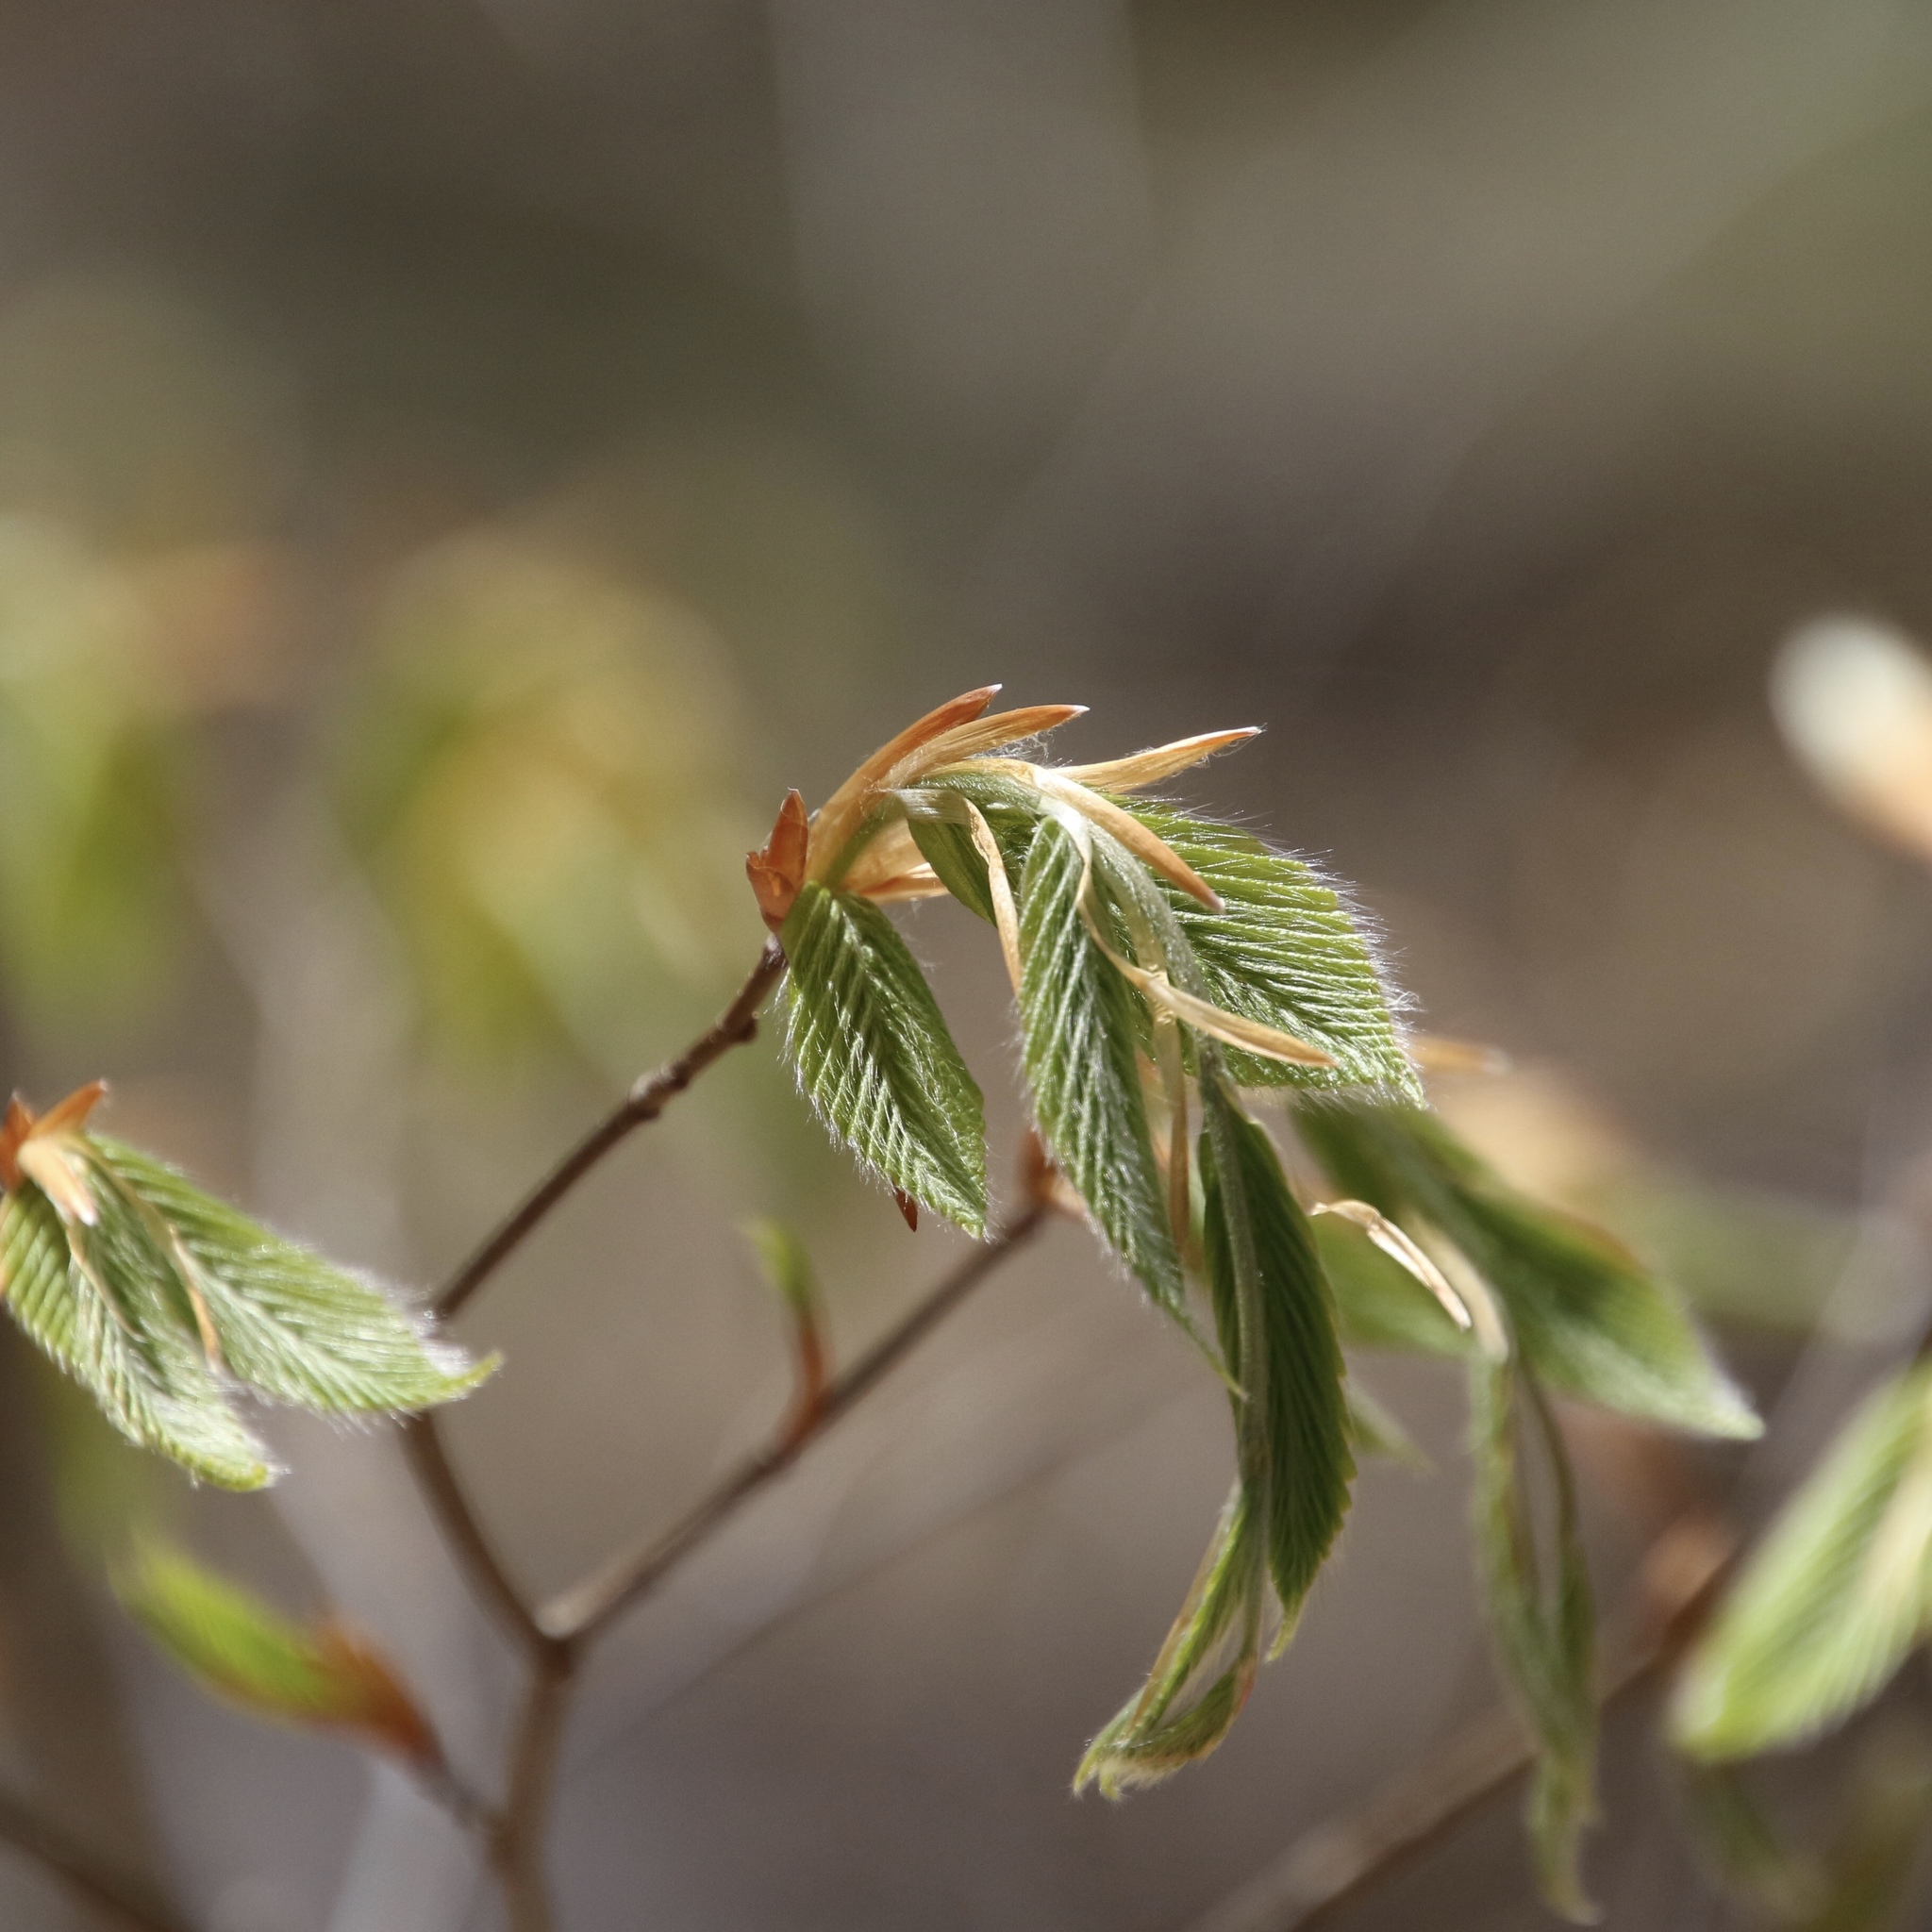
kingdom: Plantae
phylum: Tracheophyta
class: Magnoliopsida
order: Fagales
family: Fagaceae
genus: Fagus
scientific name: Fagus grandifolia
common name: American beech
